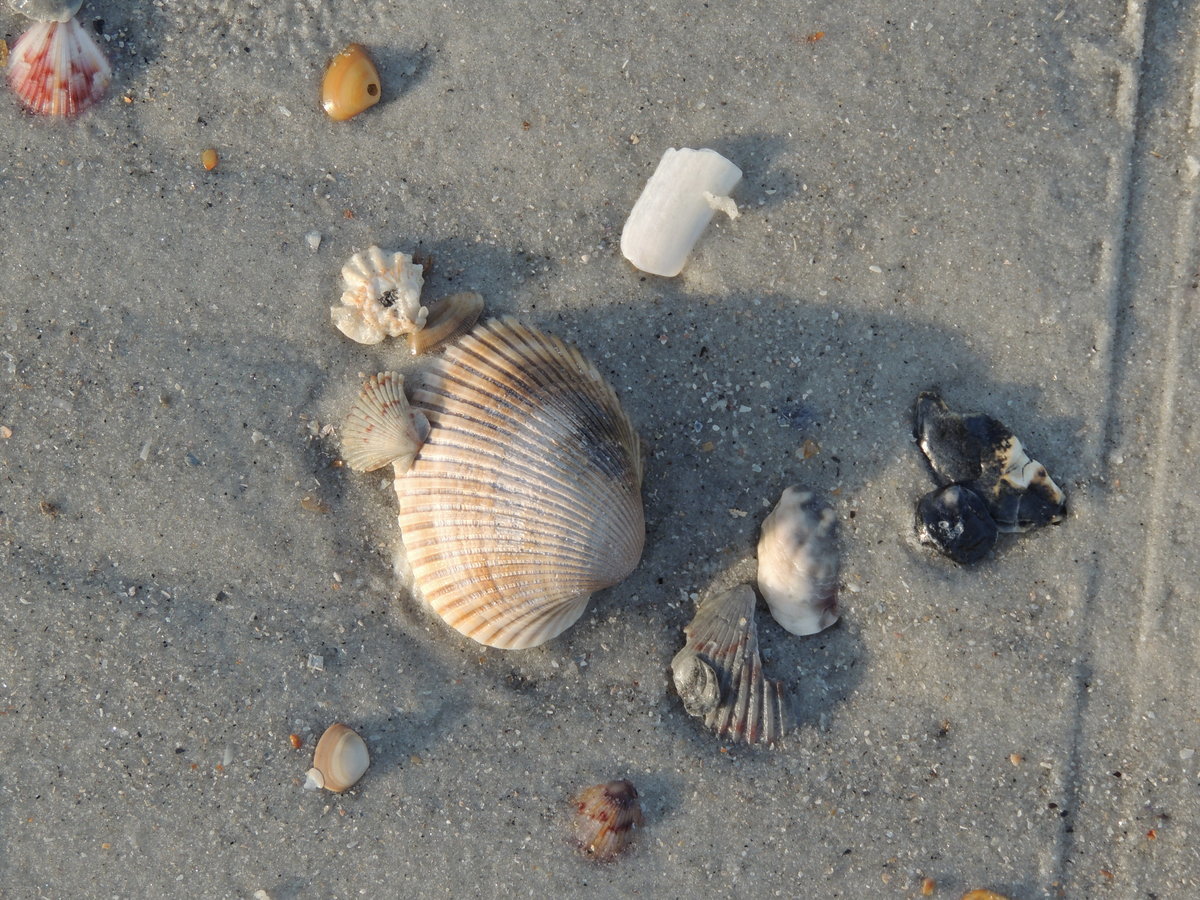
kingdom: Animalia
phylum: Mollusca
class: Bivalvia
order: Arcida
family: Arcidae
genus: Lunarca
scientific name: Lunarca ovalis
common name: Blood ark
